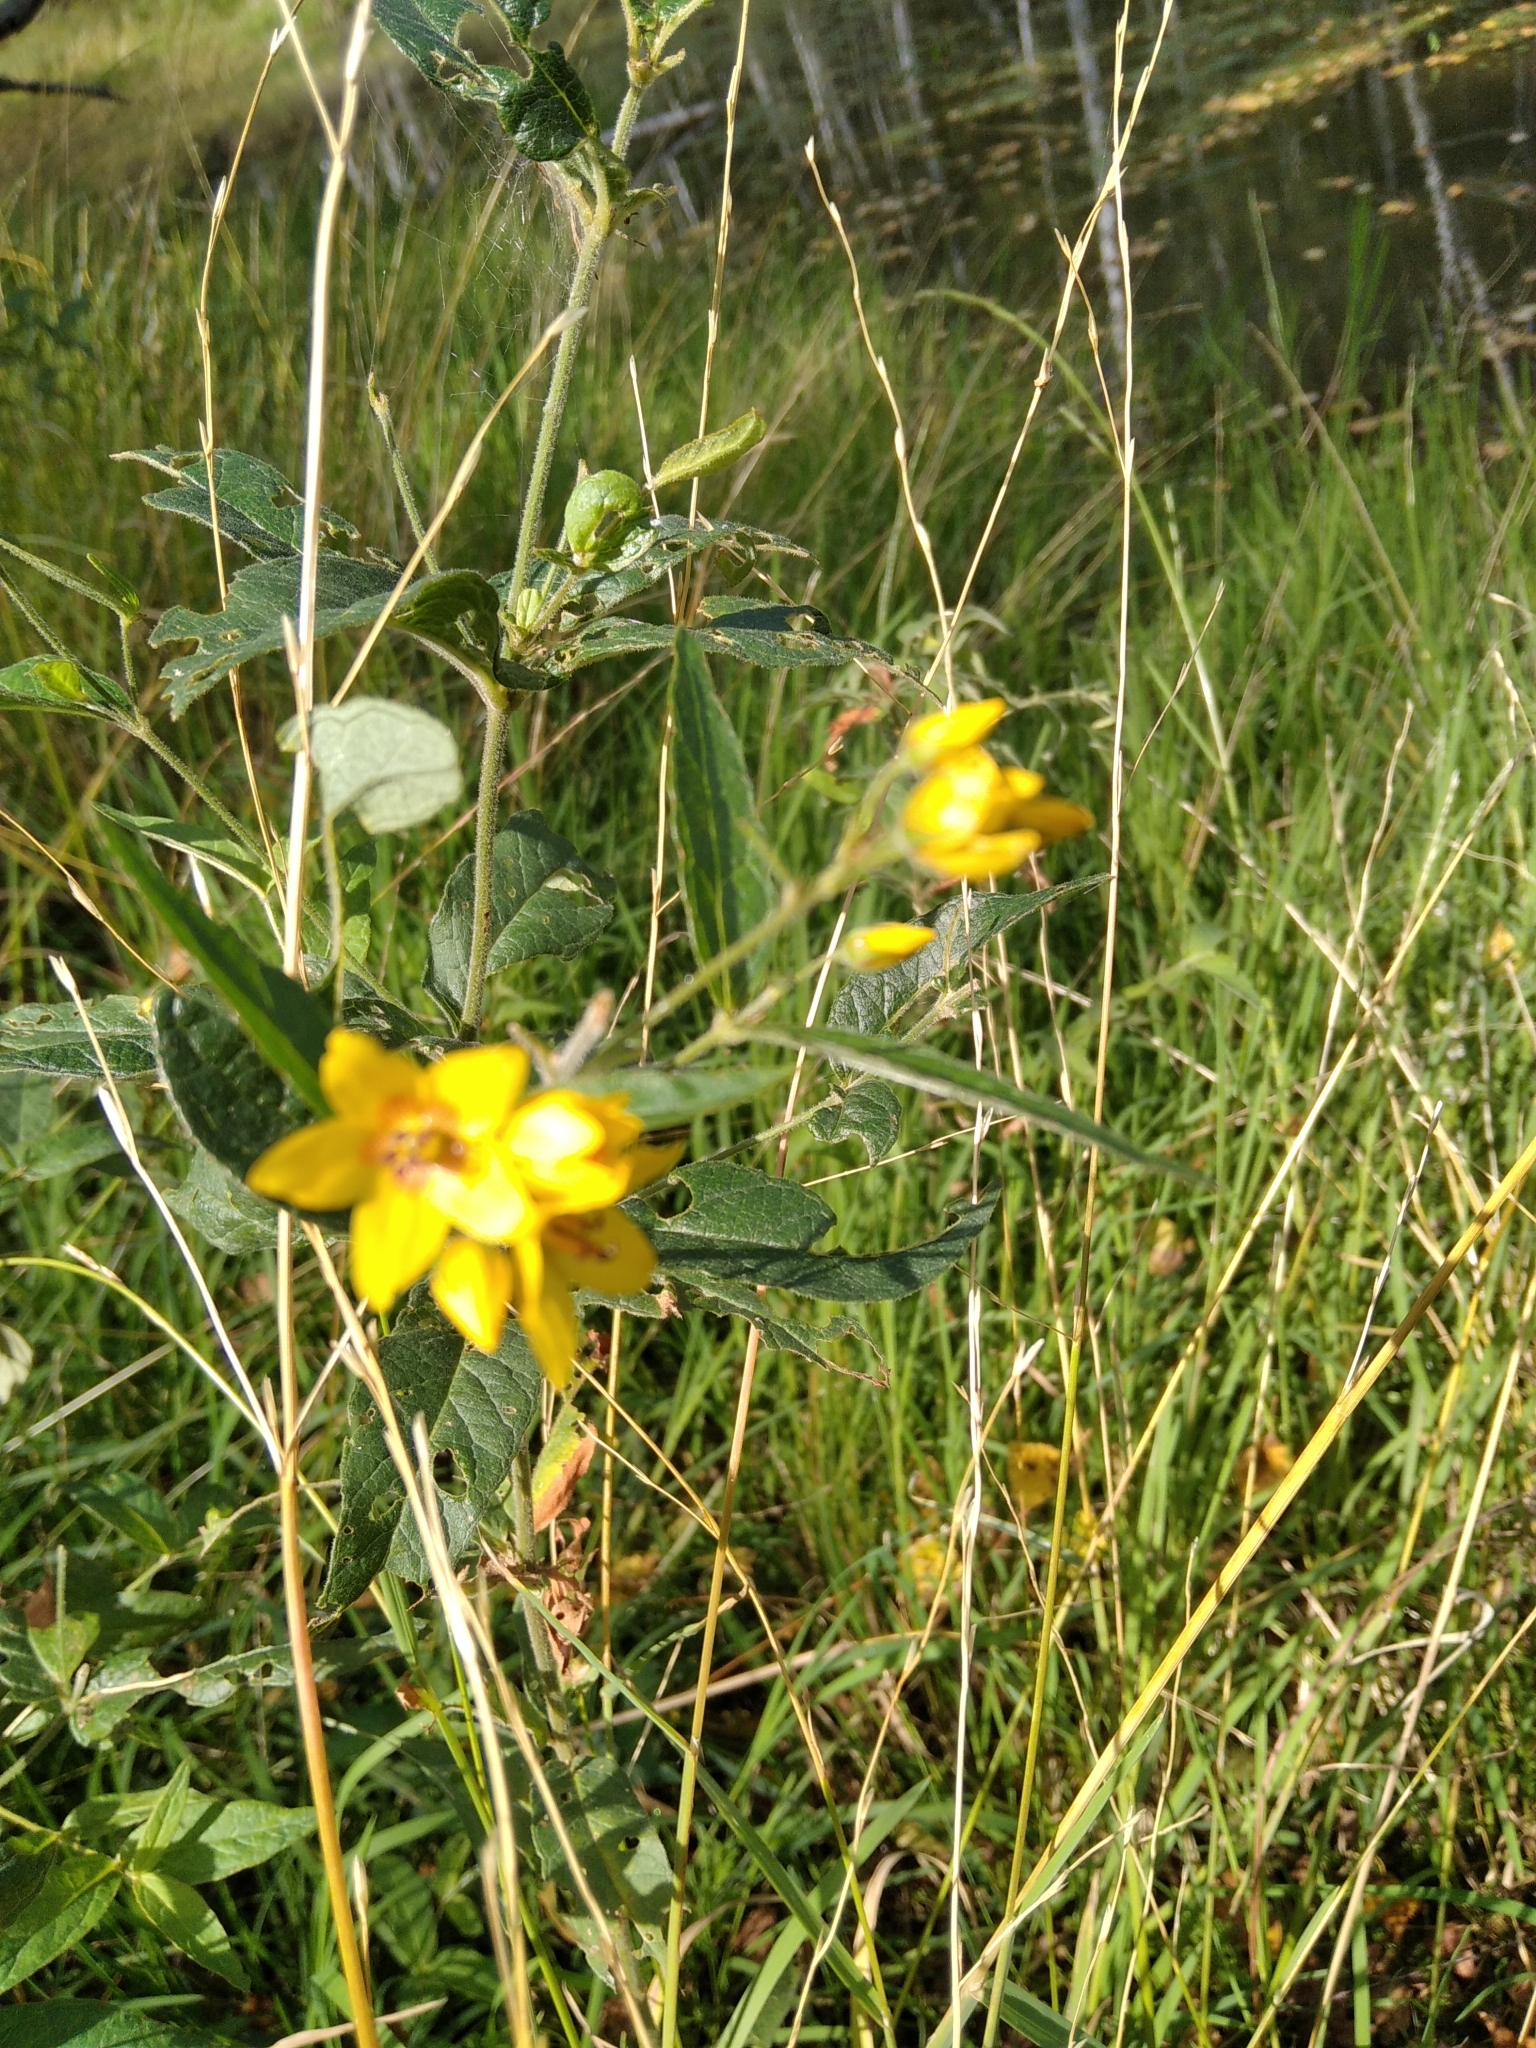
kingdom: Plantae
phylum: Tracheophyta
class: Magnoliopsida
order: Ericales
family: Primulaceae
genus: Lysimachia
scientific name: Lysimachia vulgaris
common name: Yellow loosestrife
